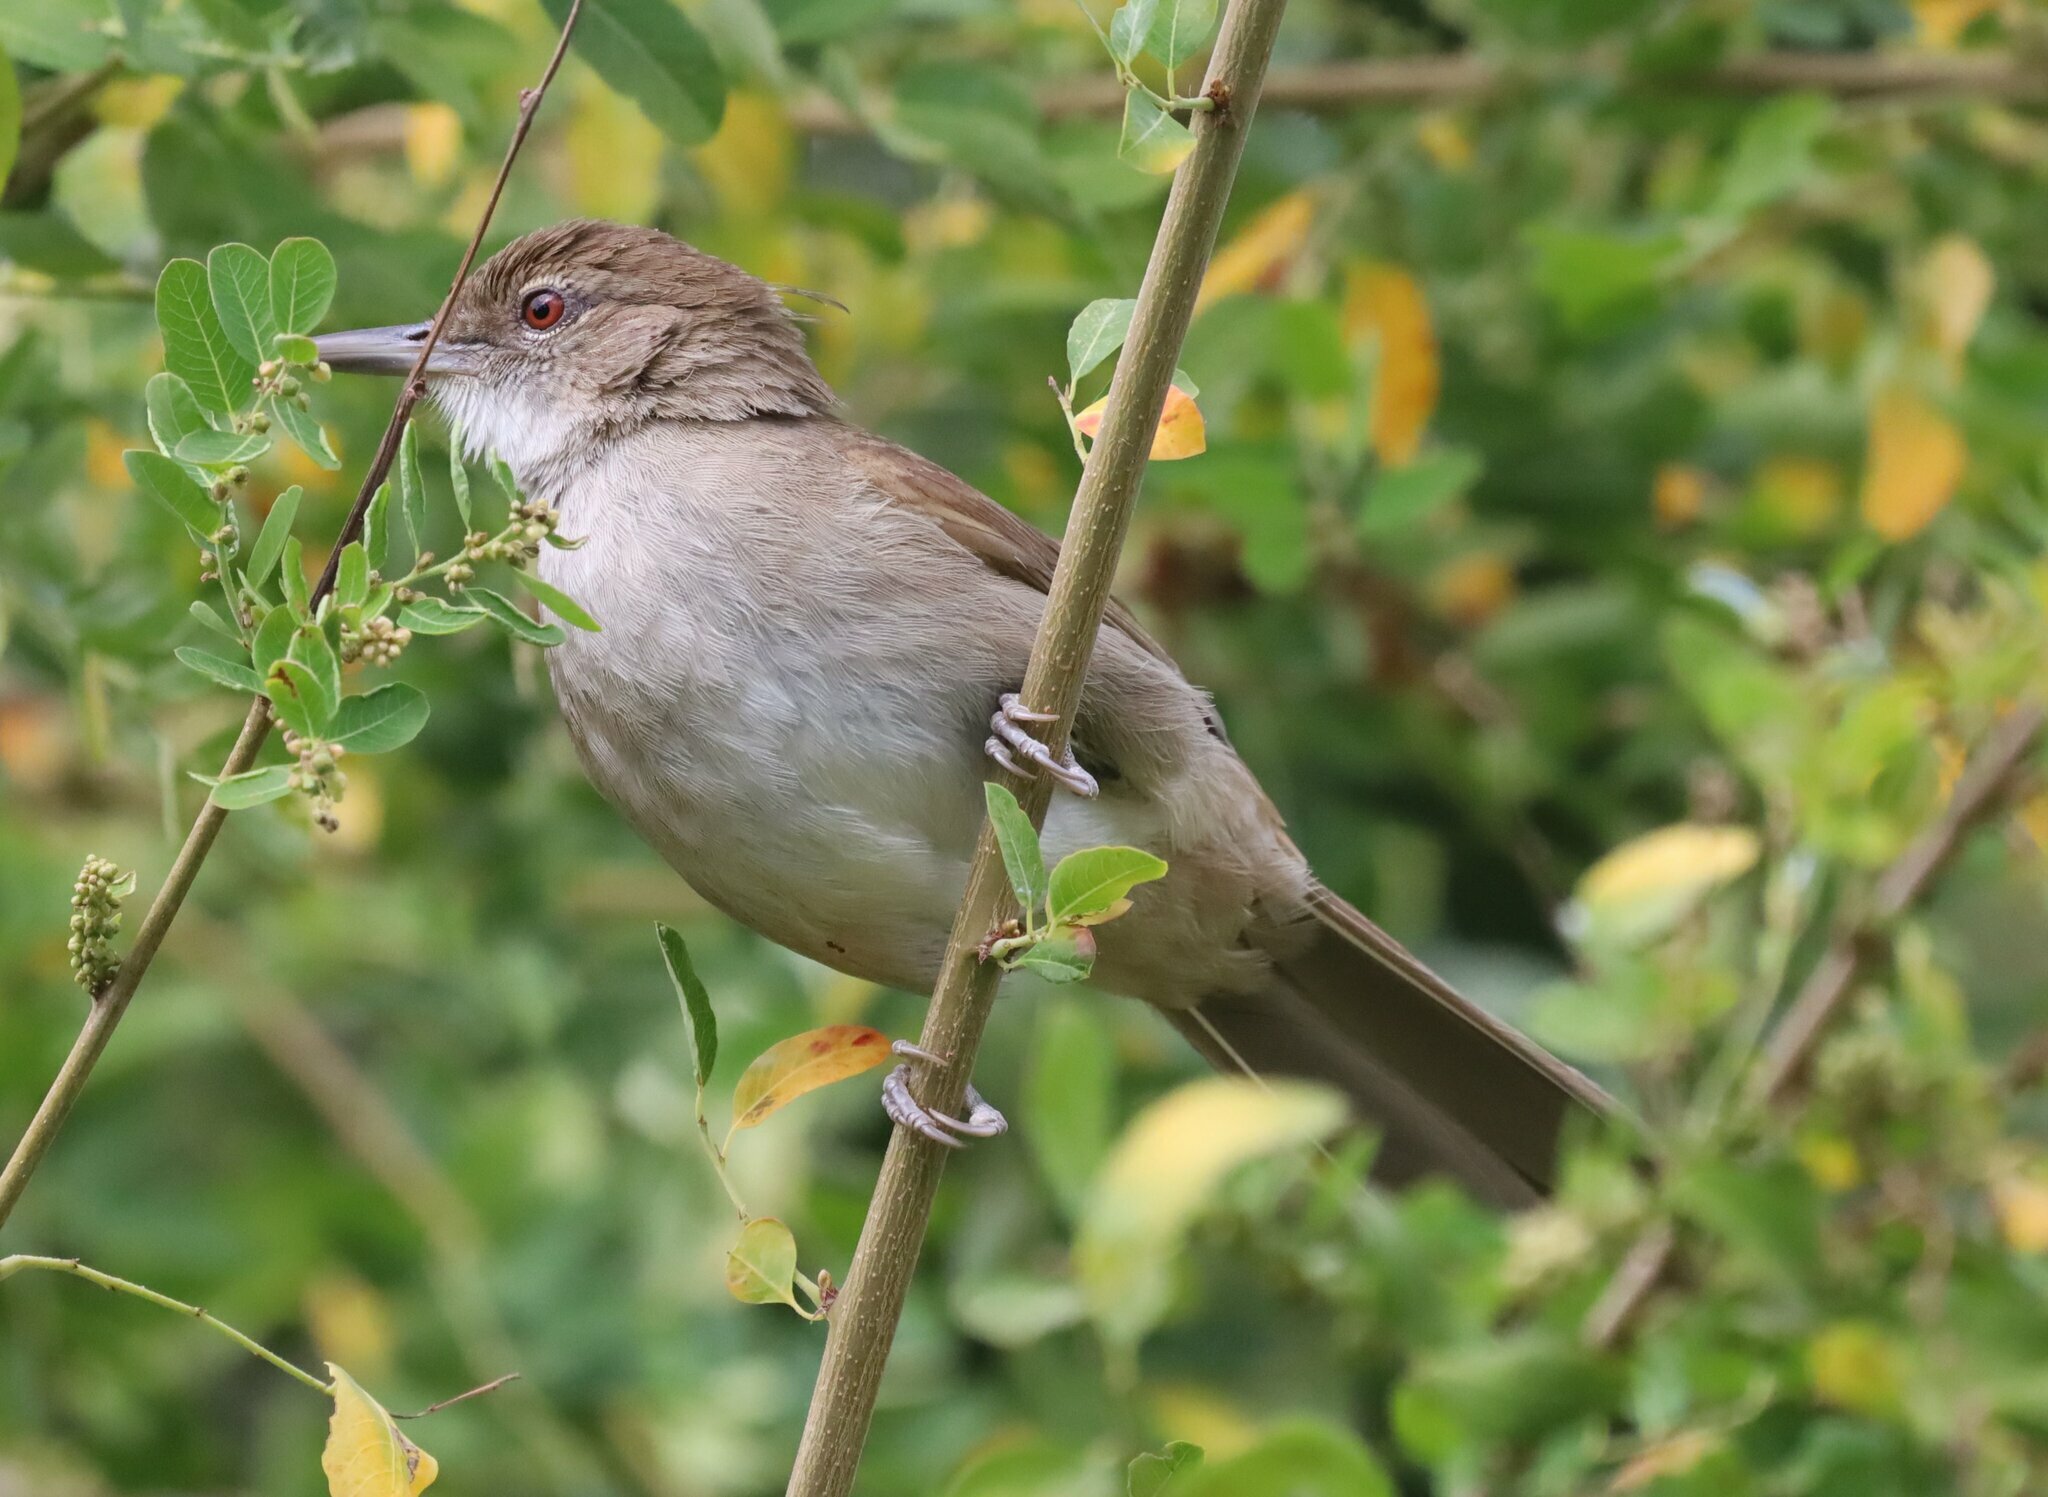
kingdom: Animalia
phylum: Chordata
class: Aves
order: Passeriformes
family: Pycnonotidae
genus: Phyllastrephus
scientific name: Phyllastrephus terrestris
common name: Terrestrial brownbul
